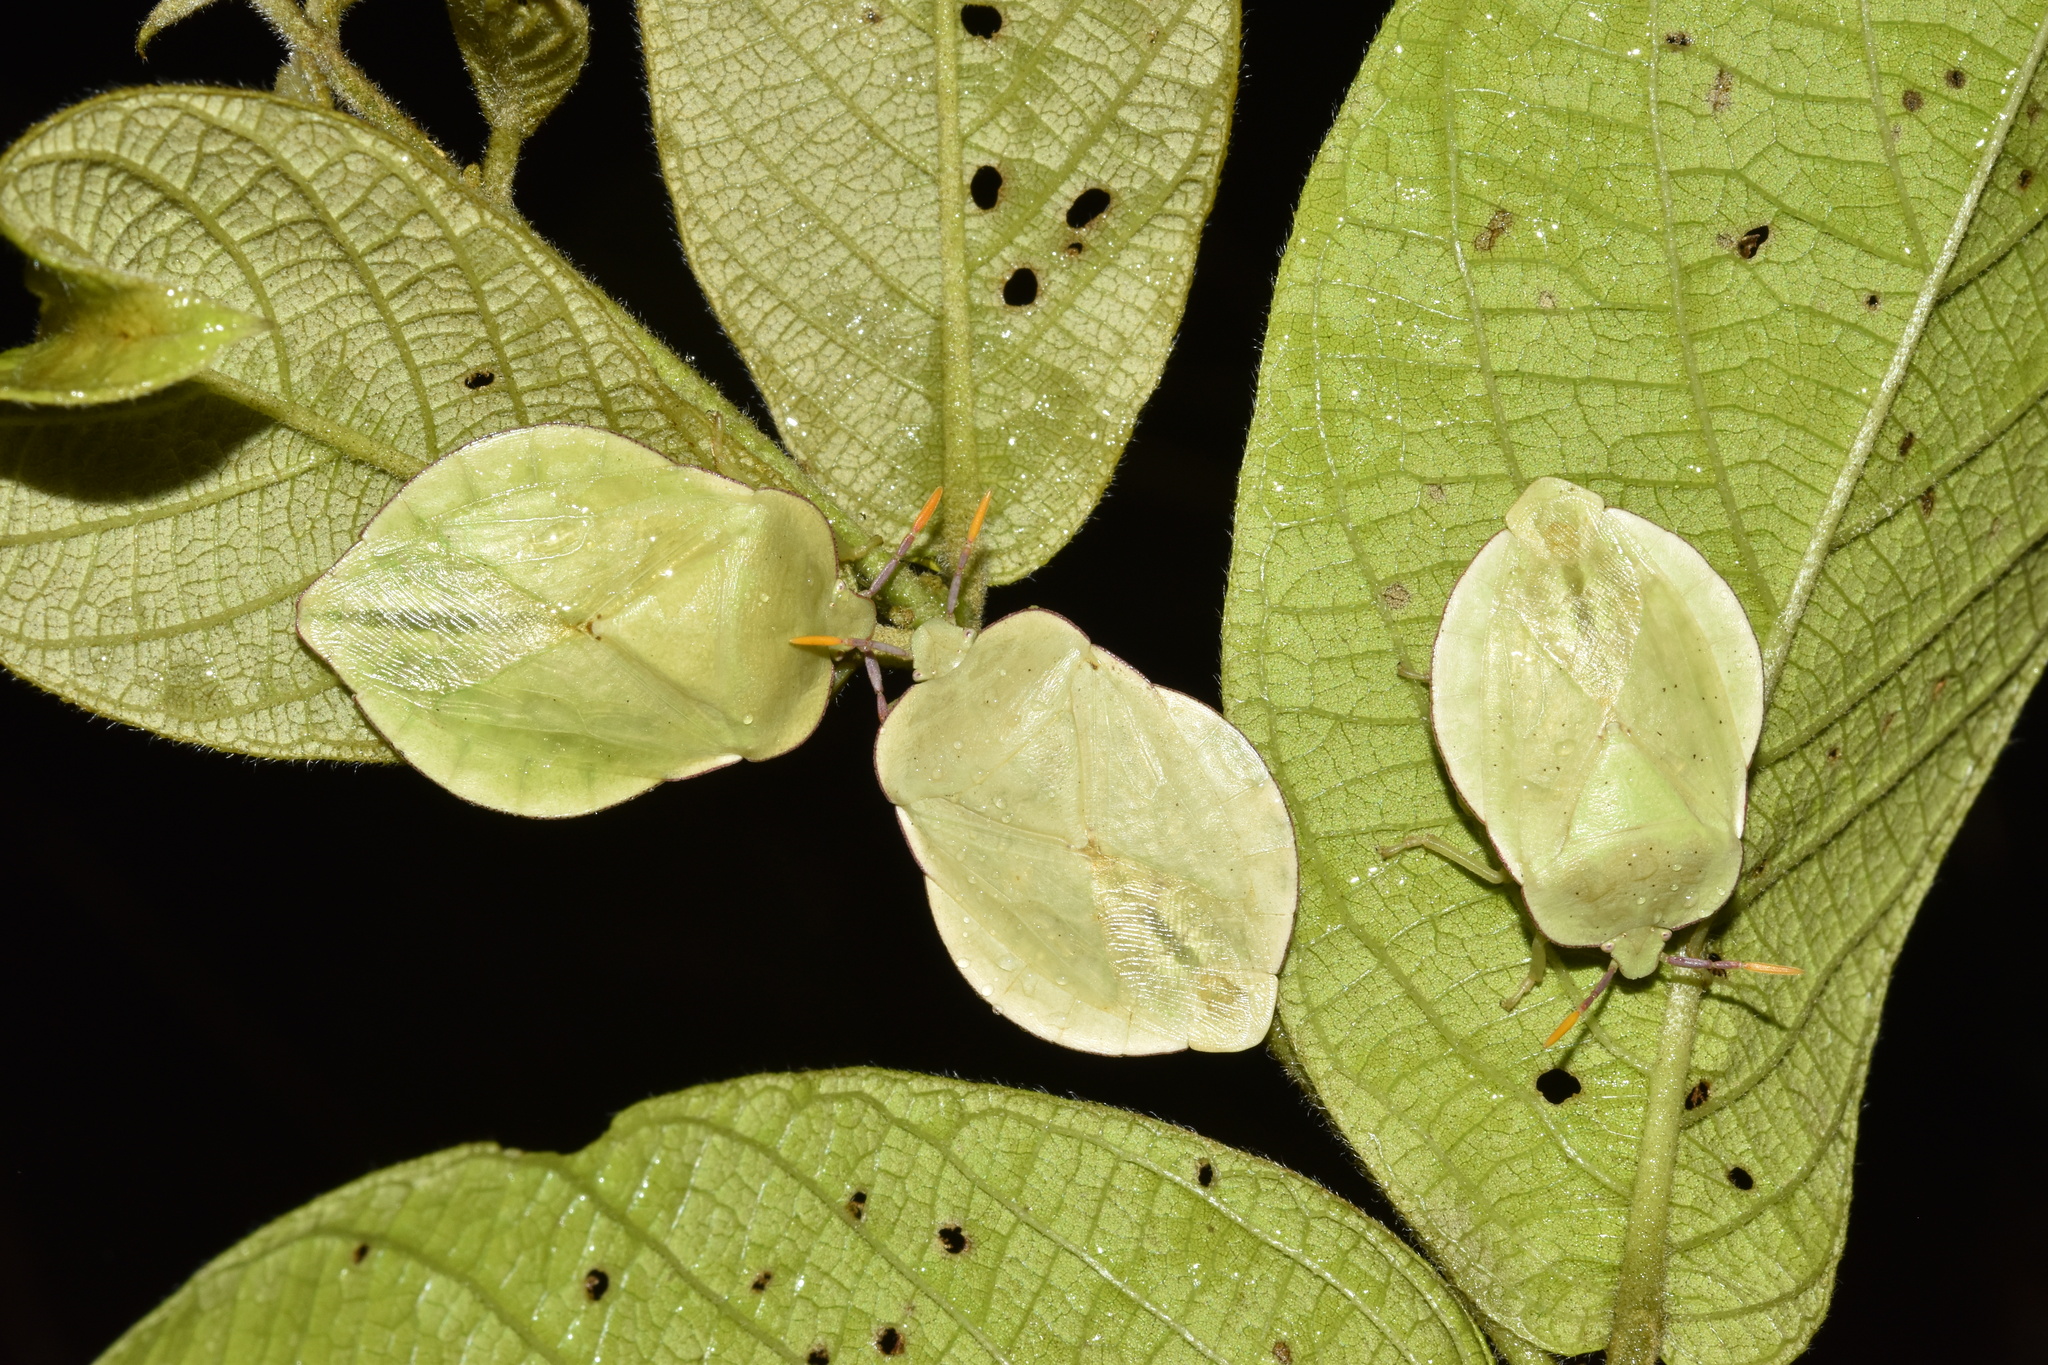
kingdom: Animalia
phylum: Arthropoda
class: Insecta
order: Hemiptera
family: Tessaratomidae
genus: Natalicola
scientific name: Natalicola pallida
